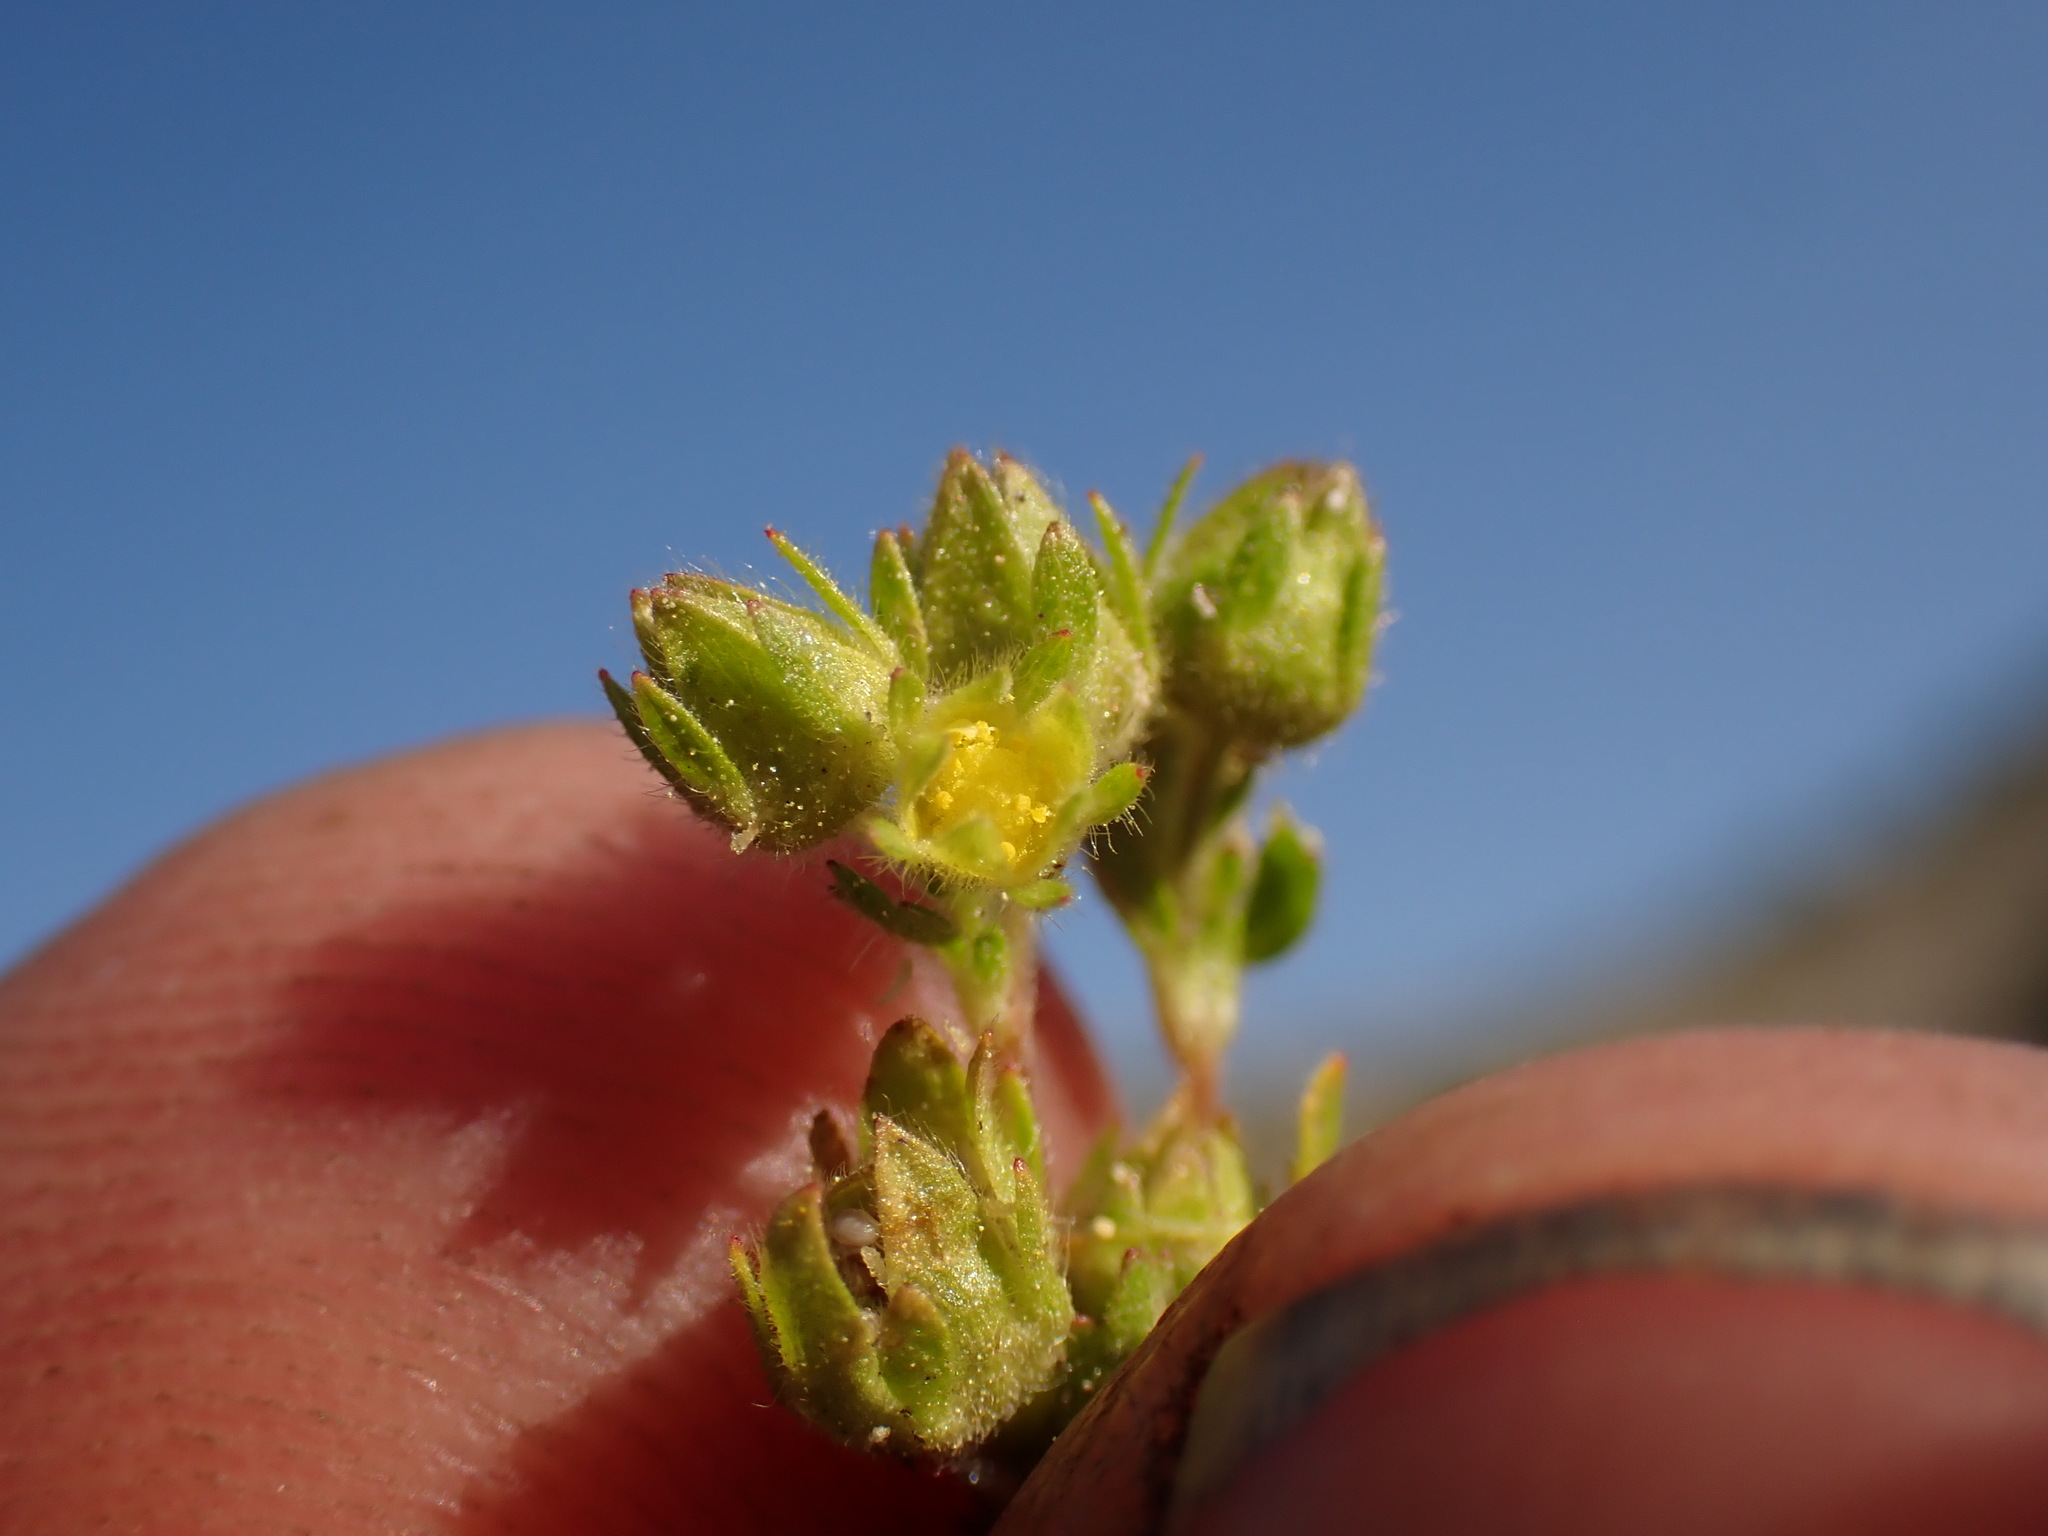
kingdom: Plantae
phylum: Tracheophyta
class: Magnoliopsida
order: Rosales
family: Rosaceae
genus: Potentilla
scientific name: Potentilla biennis
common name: Greene's cinquefoil
